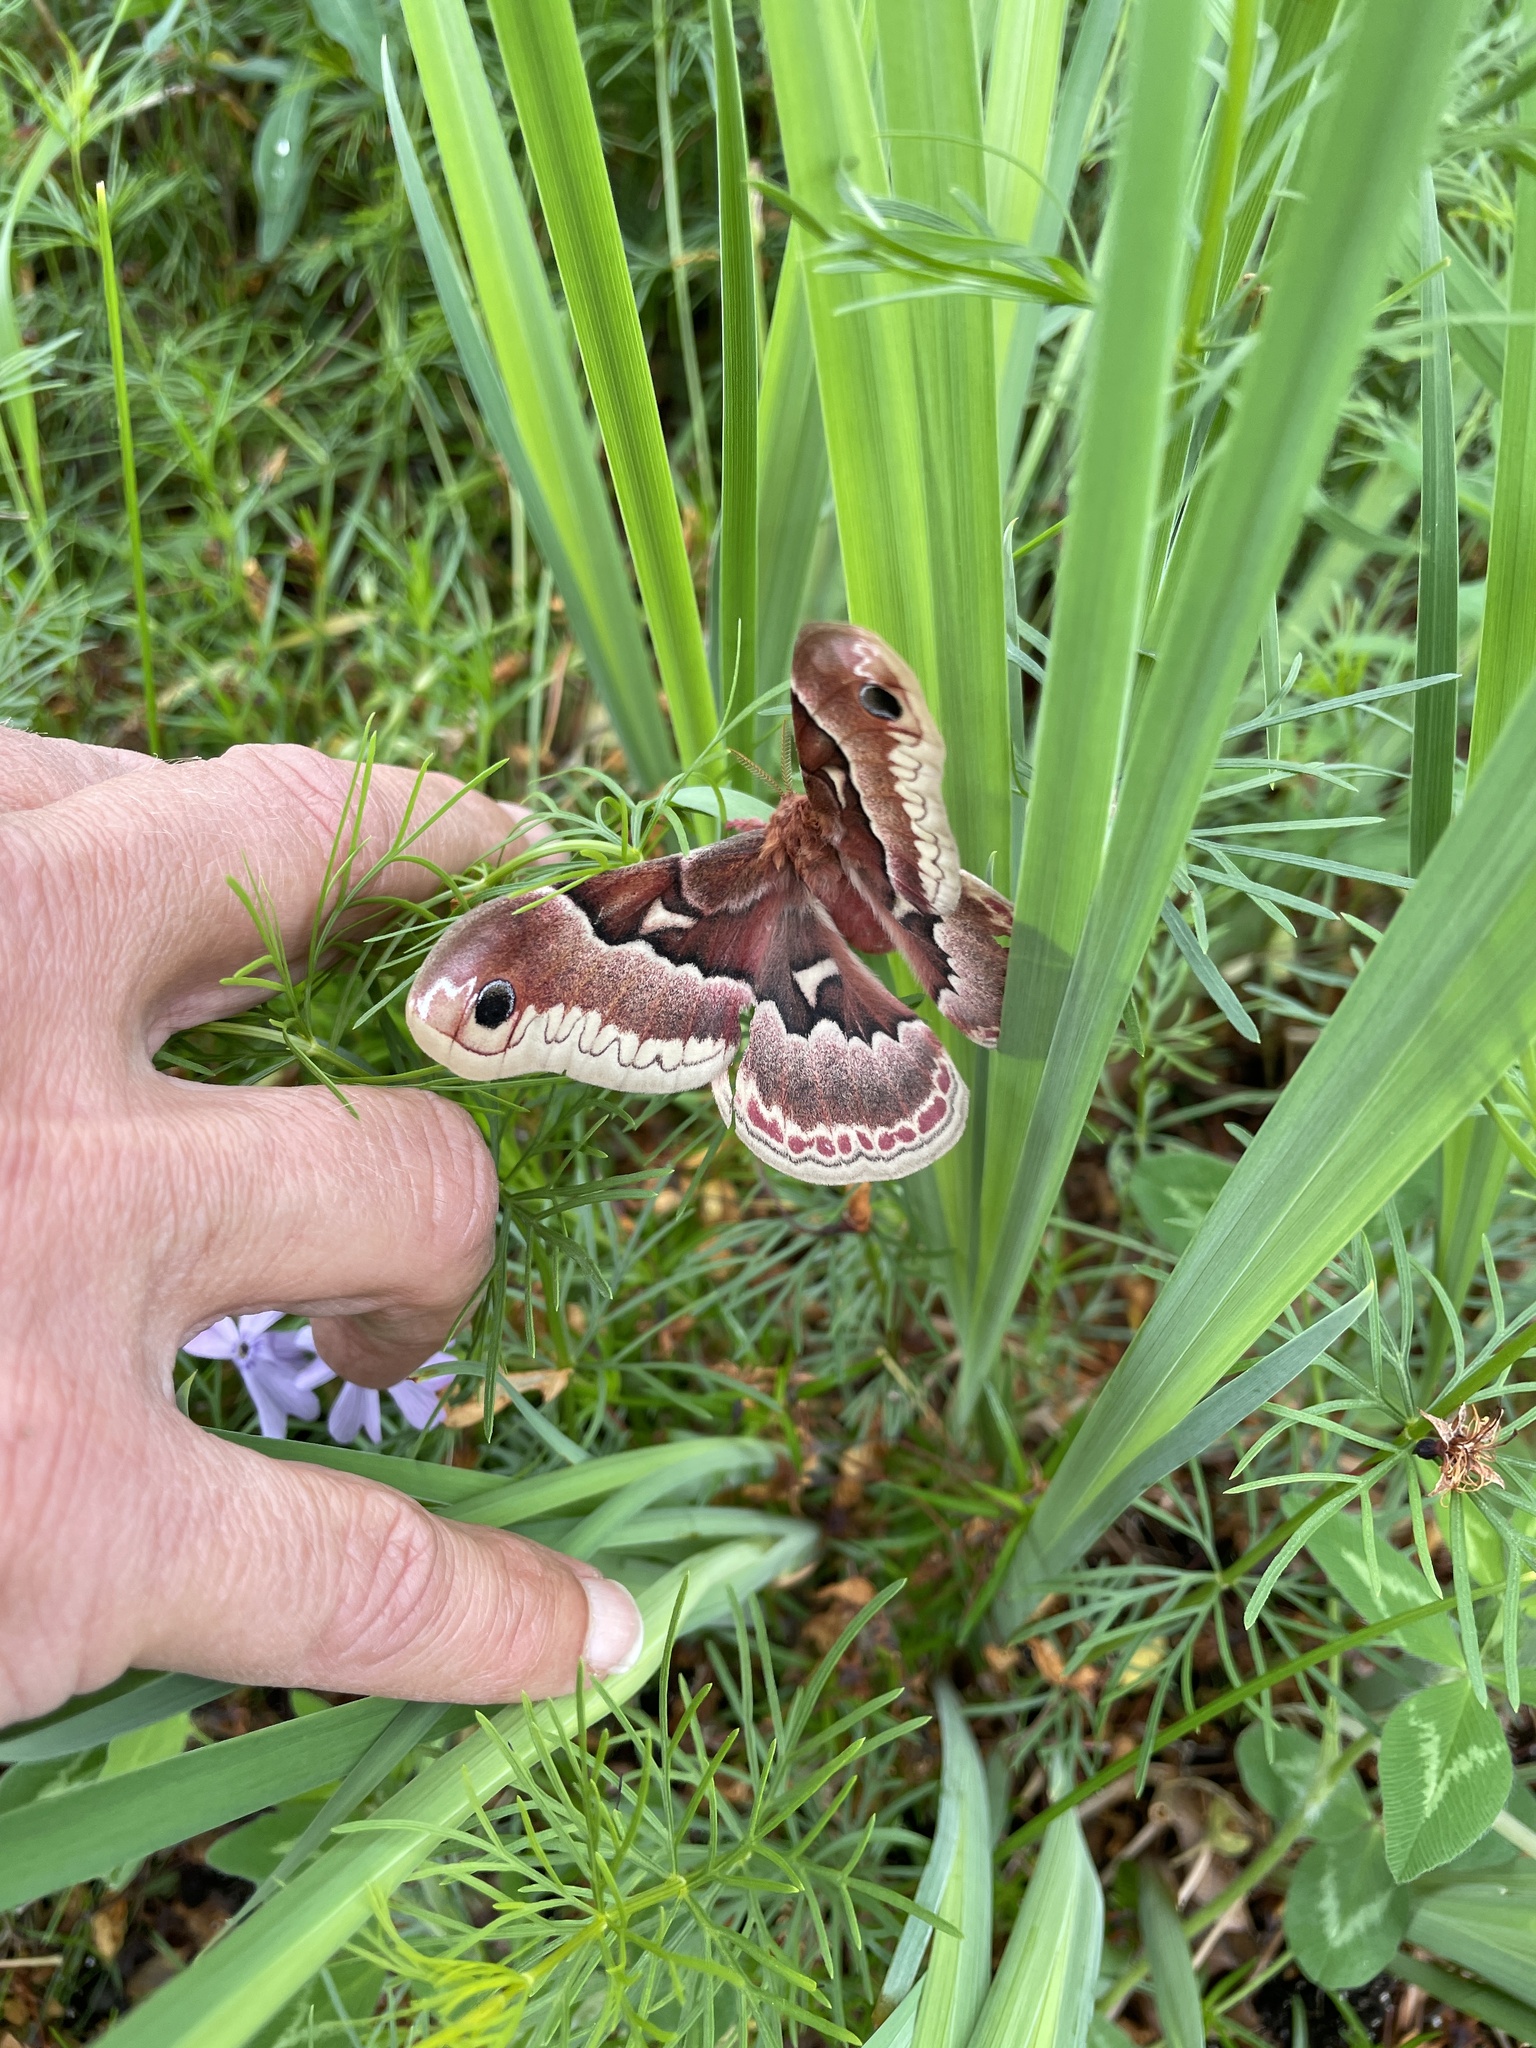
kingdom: Animalia
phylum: Arthropoda
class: Insecta
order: Lepidoptera
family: Saturniidae
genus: Callosamia
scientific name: Callosamia promethea
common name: Promethea silkmoth
